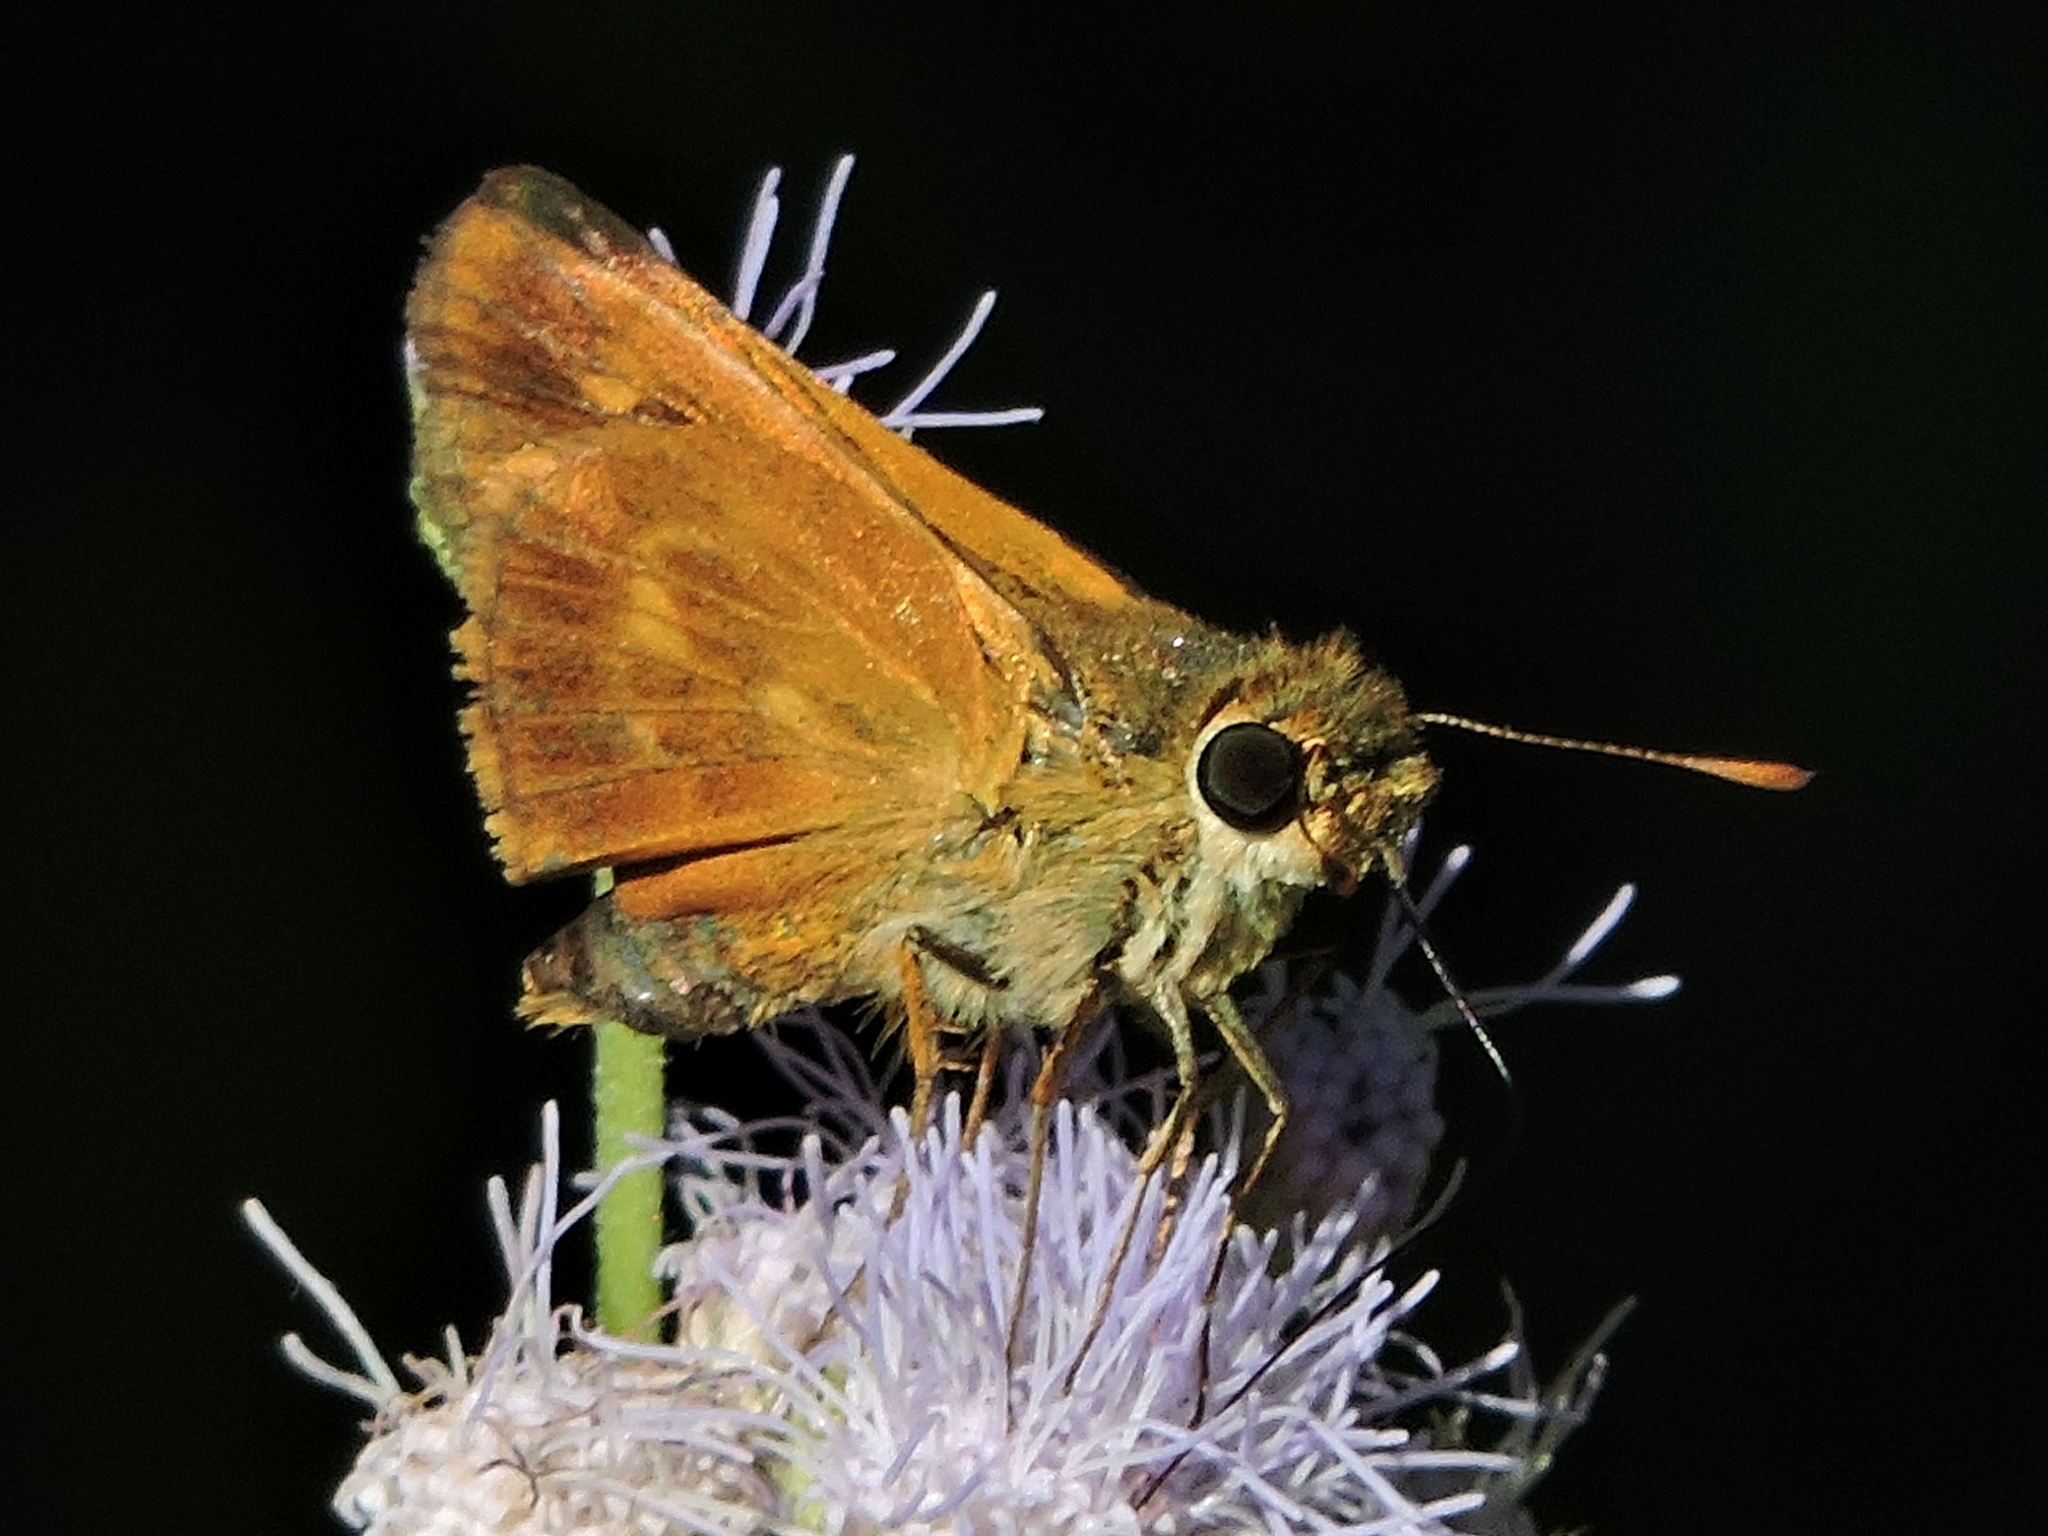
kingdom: Animalia
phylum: Arthropoda
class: Insecta
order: Lepidoptera
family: Hesperiidae
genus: Atalopedes
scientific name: Atalopedes
